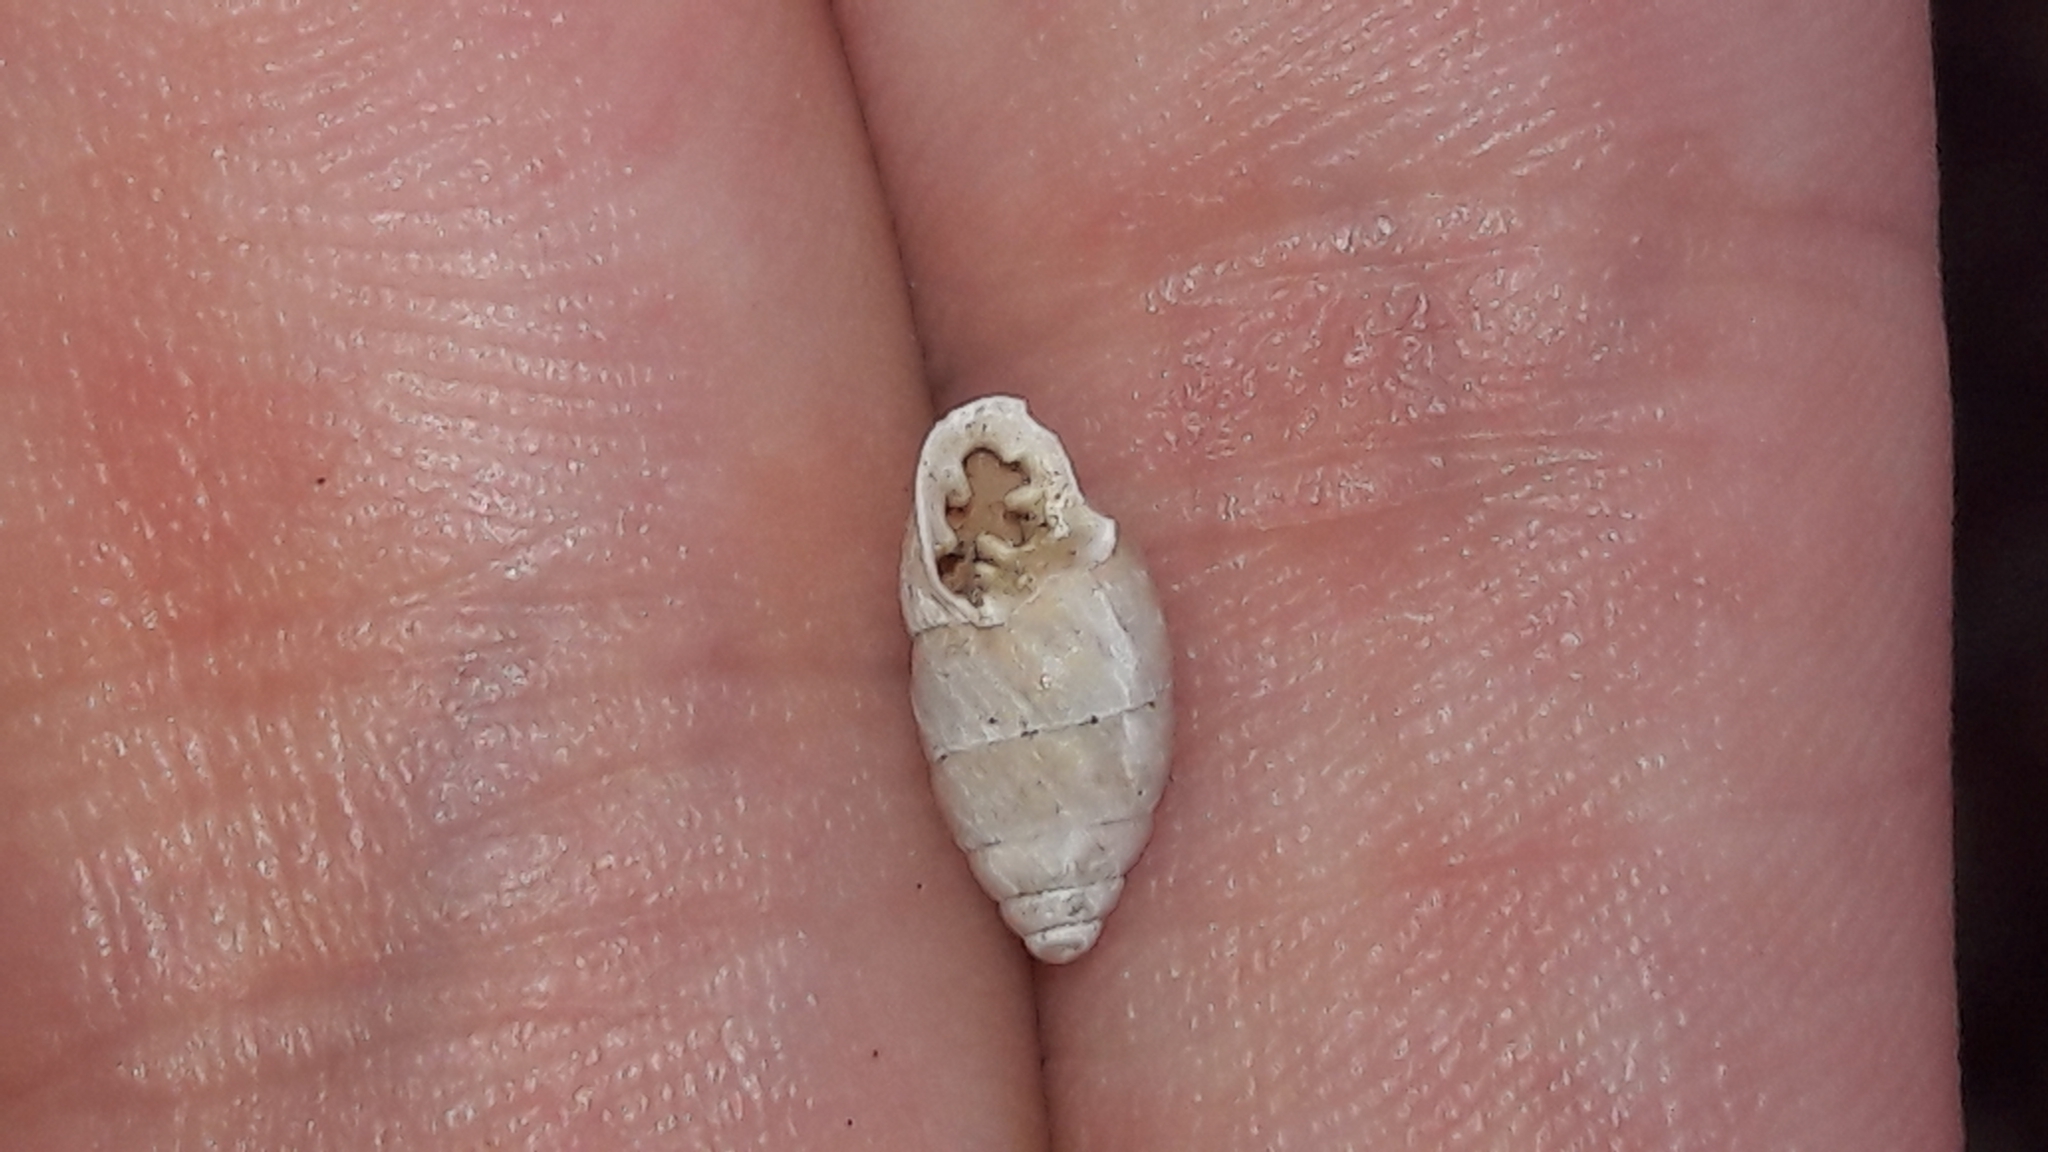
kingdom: Animalia
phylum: Mollusca
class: Gastropoda
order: Stylommatophora
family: Enidae
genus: Euchondrus
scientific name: Euchondrus septemdentatus
